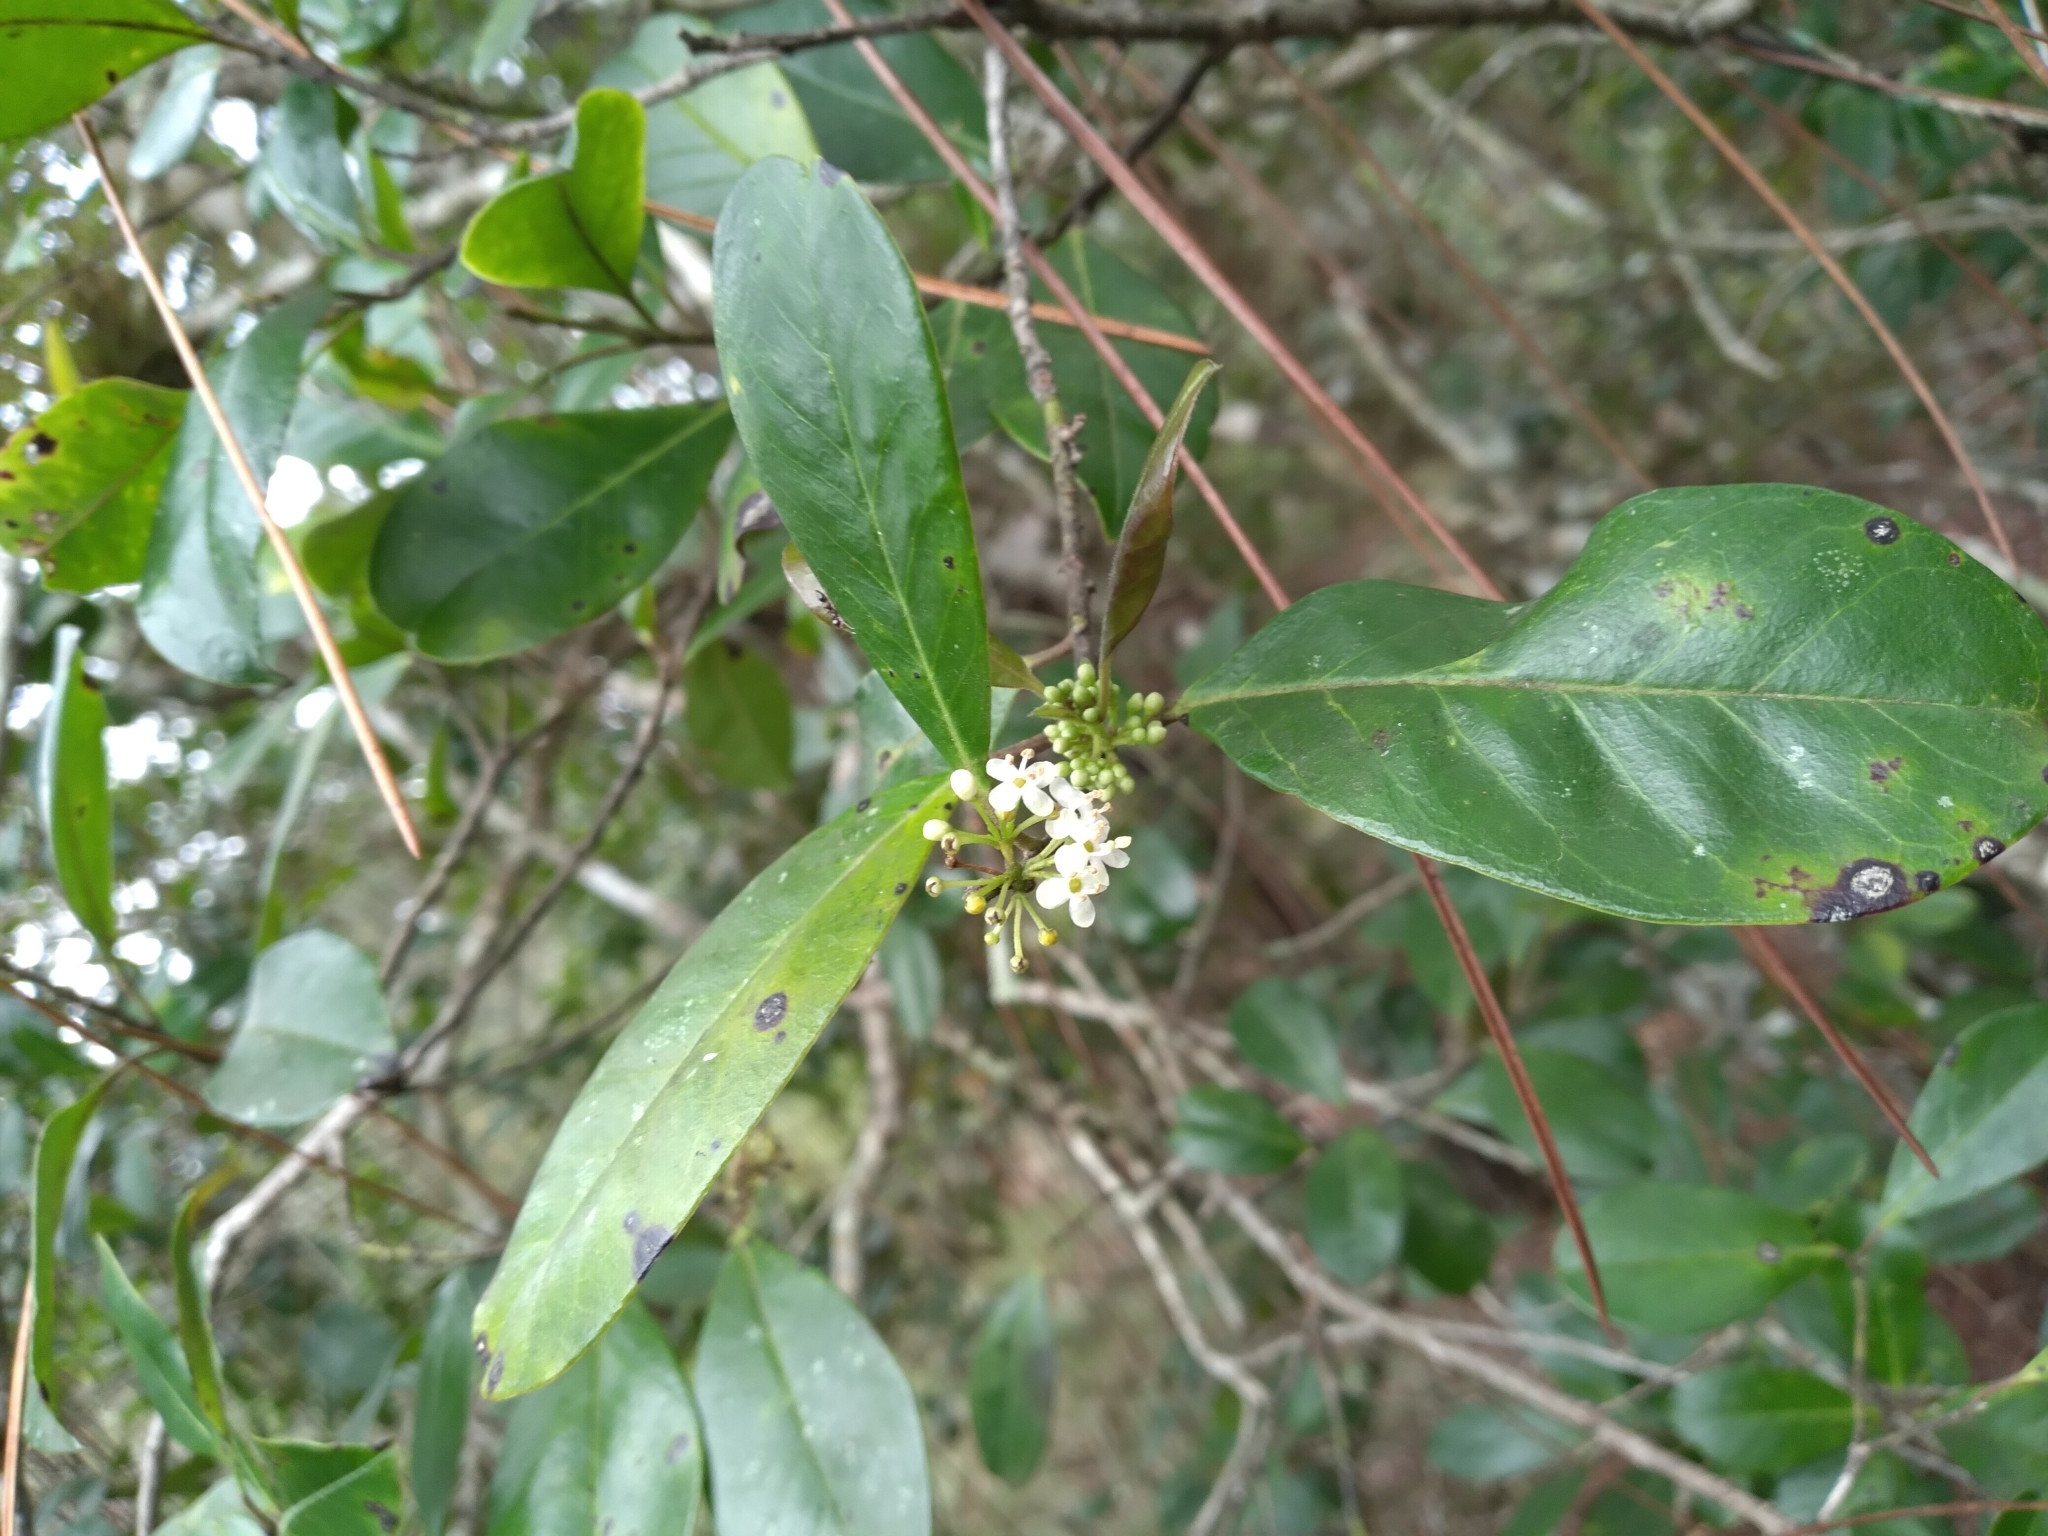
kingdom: Plantae
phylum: Tracheophyta
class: Magnoliopsida
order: Aquifoliales
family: Aquifoliaceae
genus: Ilex
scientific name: Ilex cassine
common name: Dahoon
